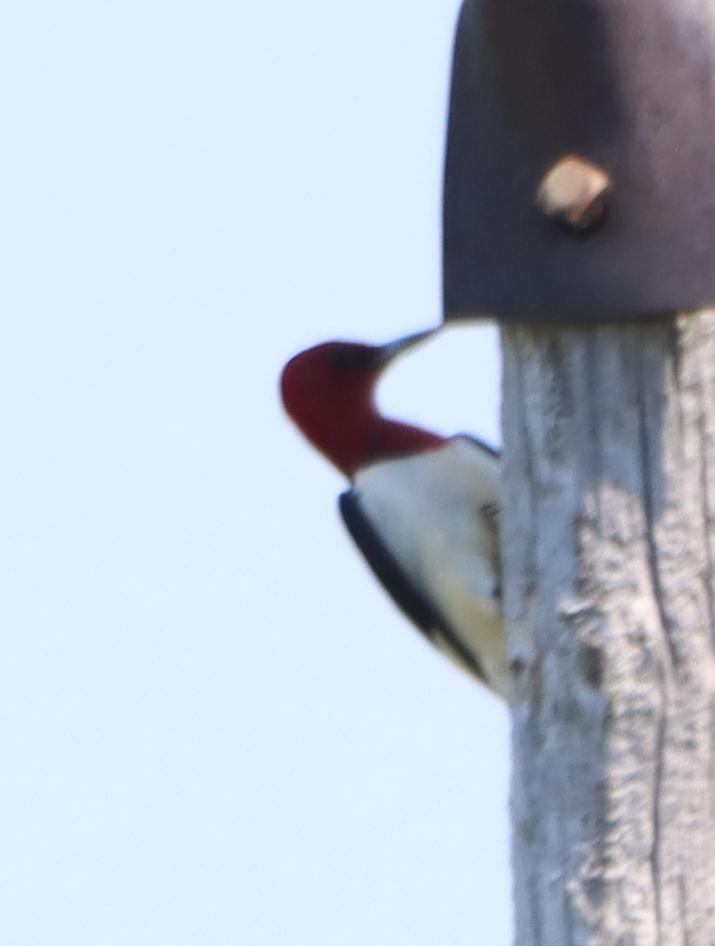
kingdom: Animalia
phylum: Chordata
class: Aves
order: Piciformes
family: Picidae
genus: Melanerpes
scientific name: Melanerpes erythrocephalus
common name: Red-headed woodpecker
